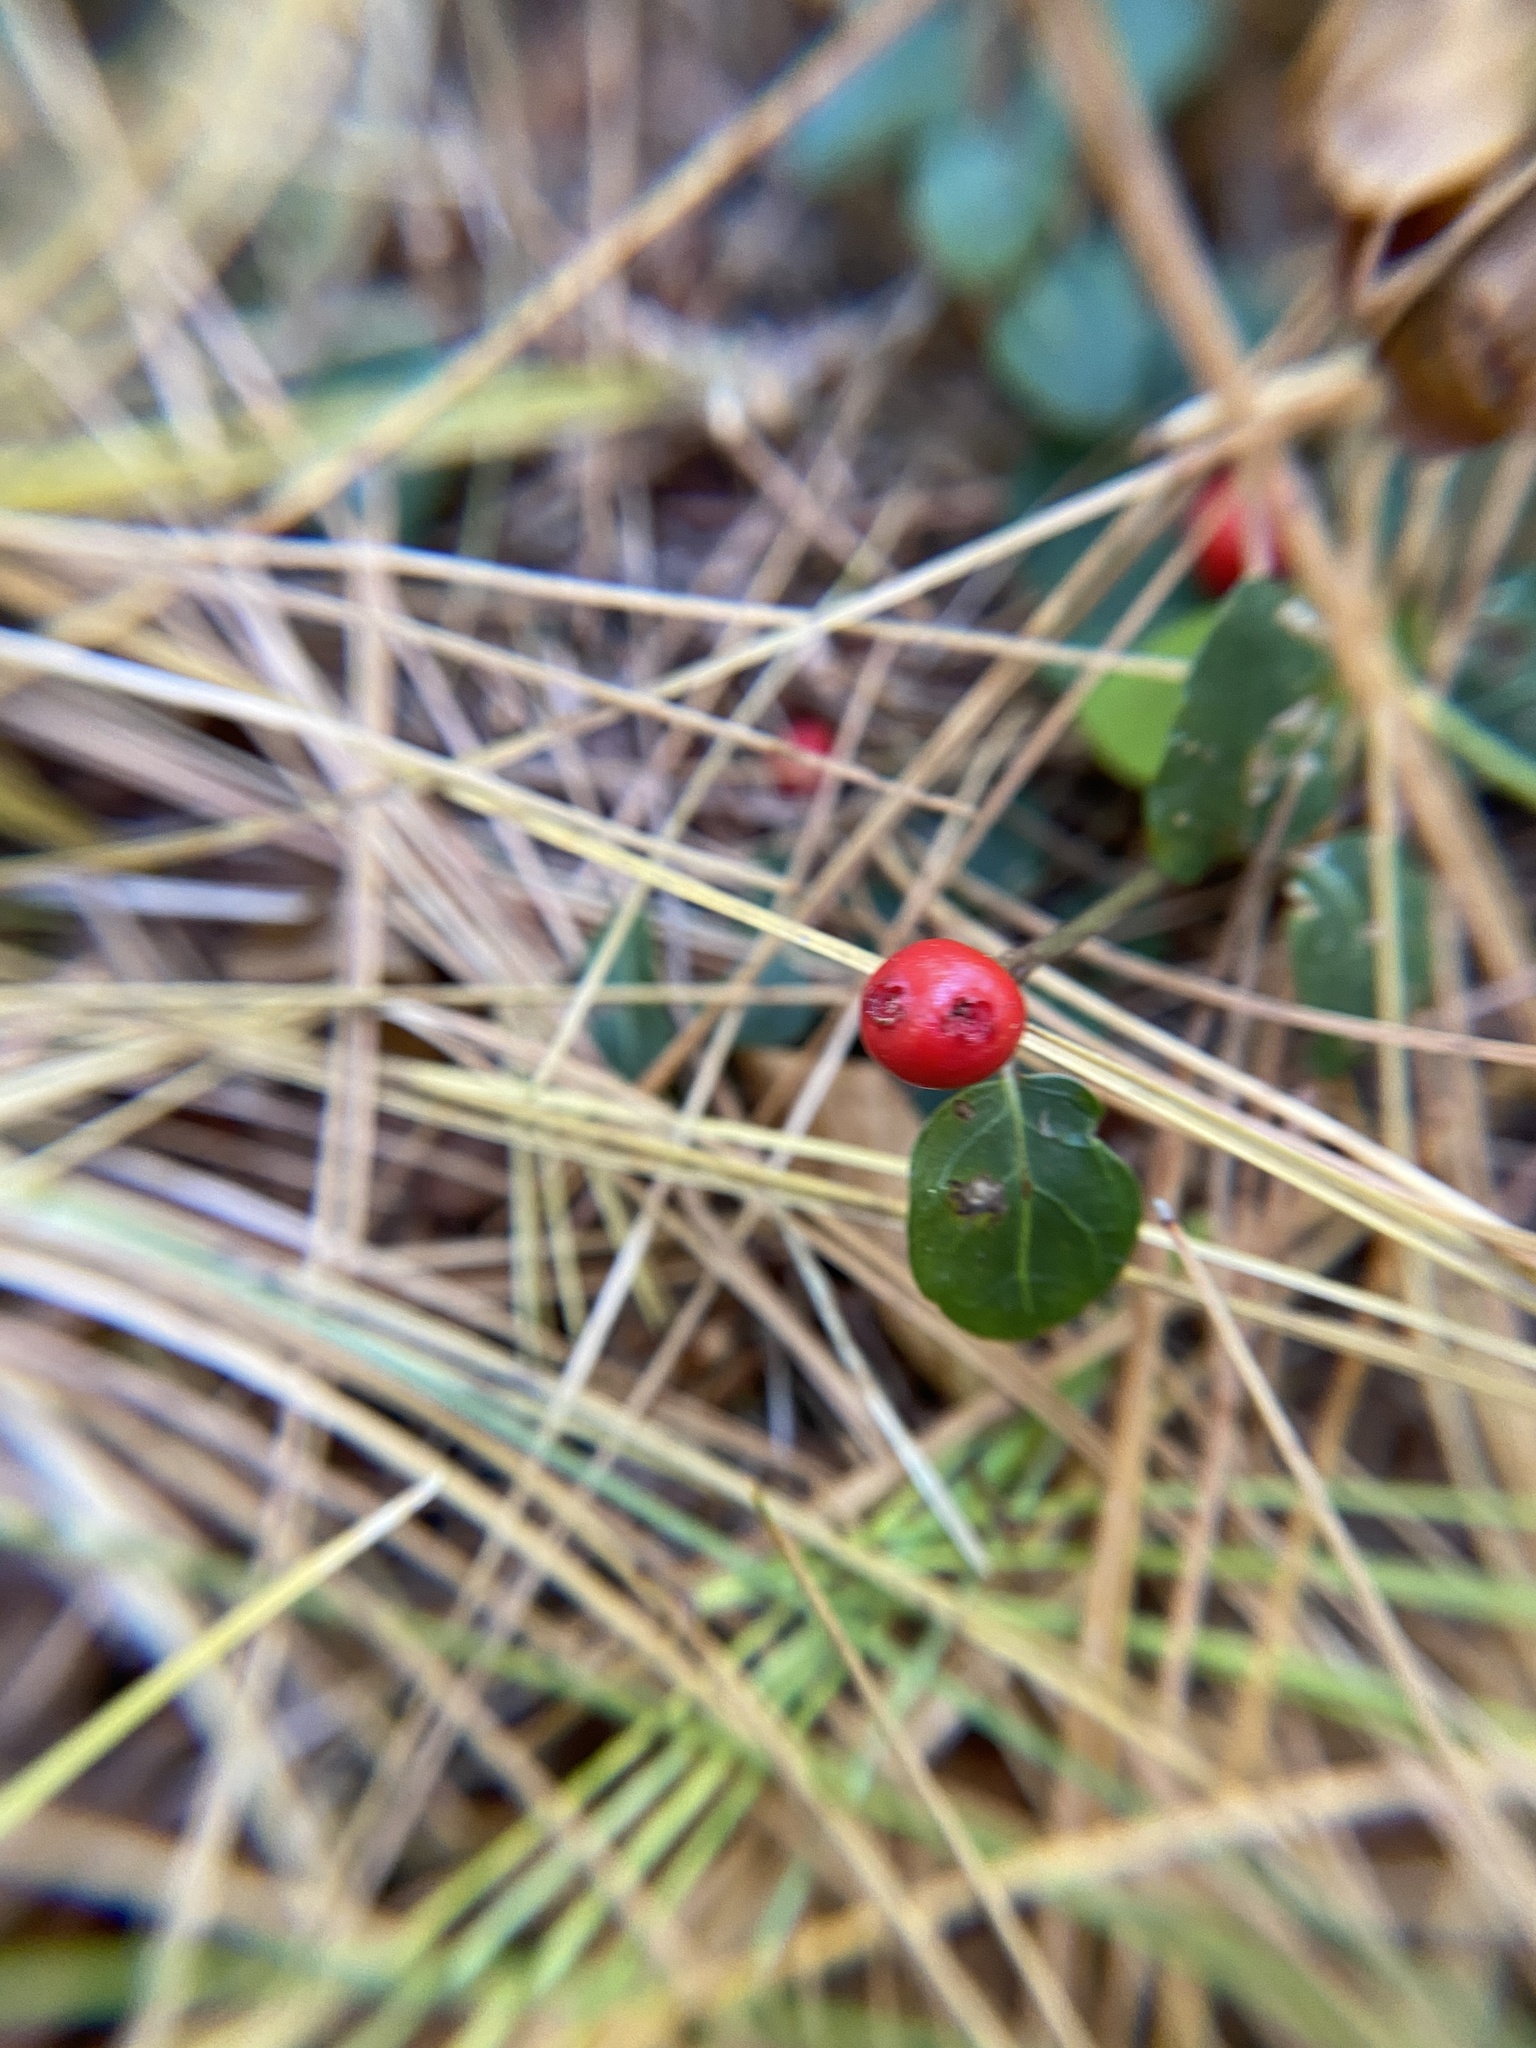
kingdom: Plantae
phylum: Tracheophyta
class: Magnoliopsida
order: Gentianales
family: Rubiaceae
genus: Mitchella
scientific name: Mitchella repens
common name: Partridge-berry
